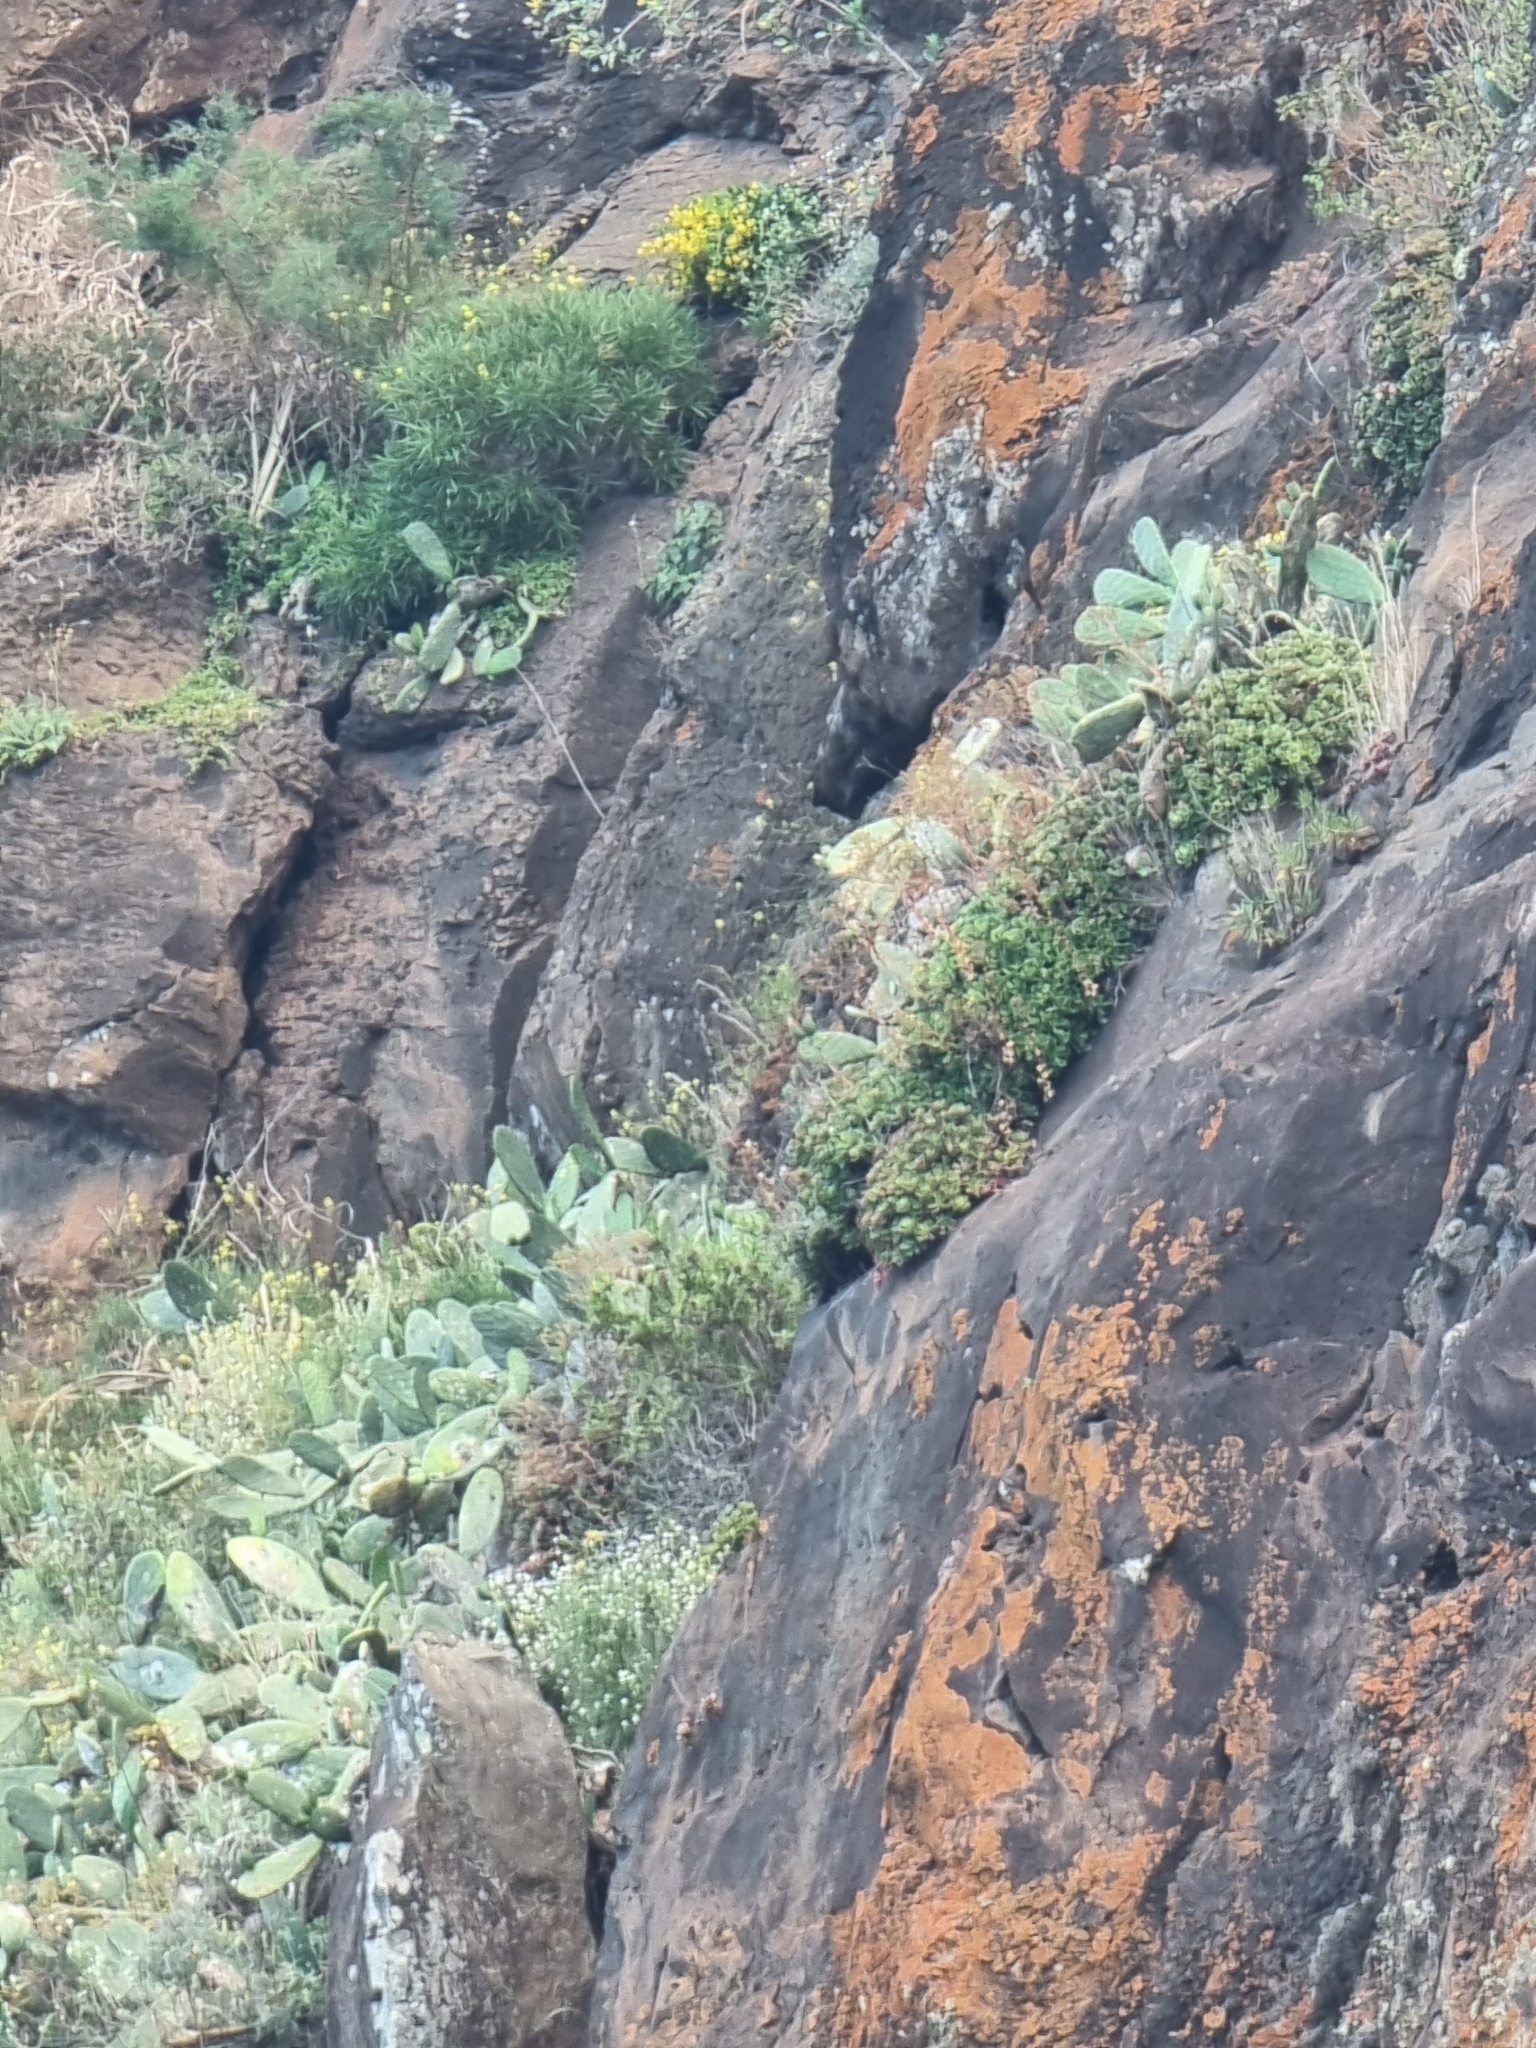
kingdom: Plantae
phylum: Tracheophyta
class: Magnoliopsida
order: Caryophyllales
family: Cactaceae
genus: Opuntia
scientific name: Opuntia ficus-indica
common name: Barbary fig
